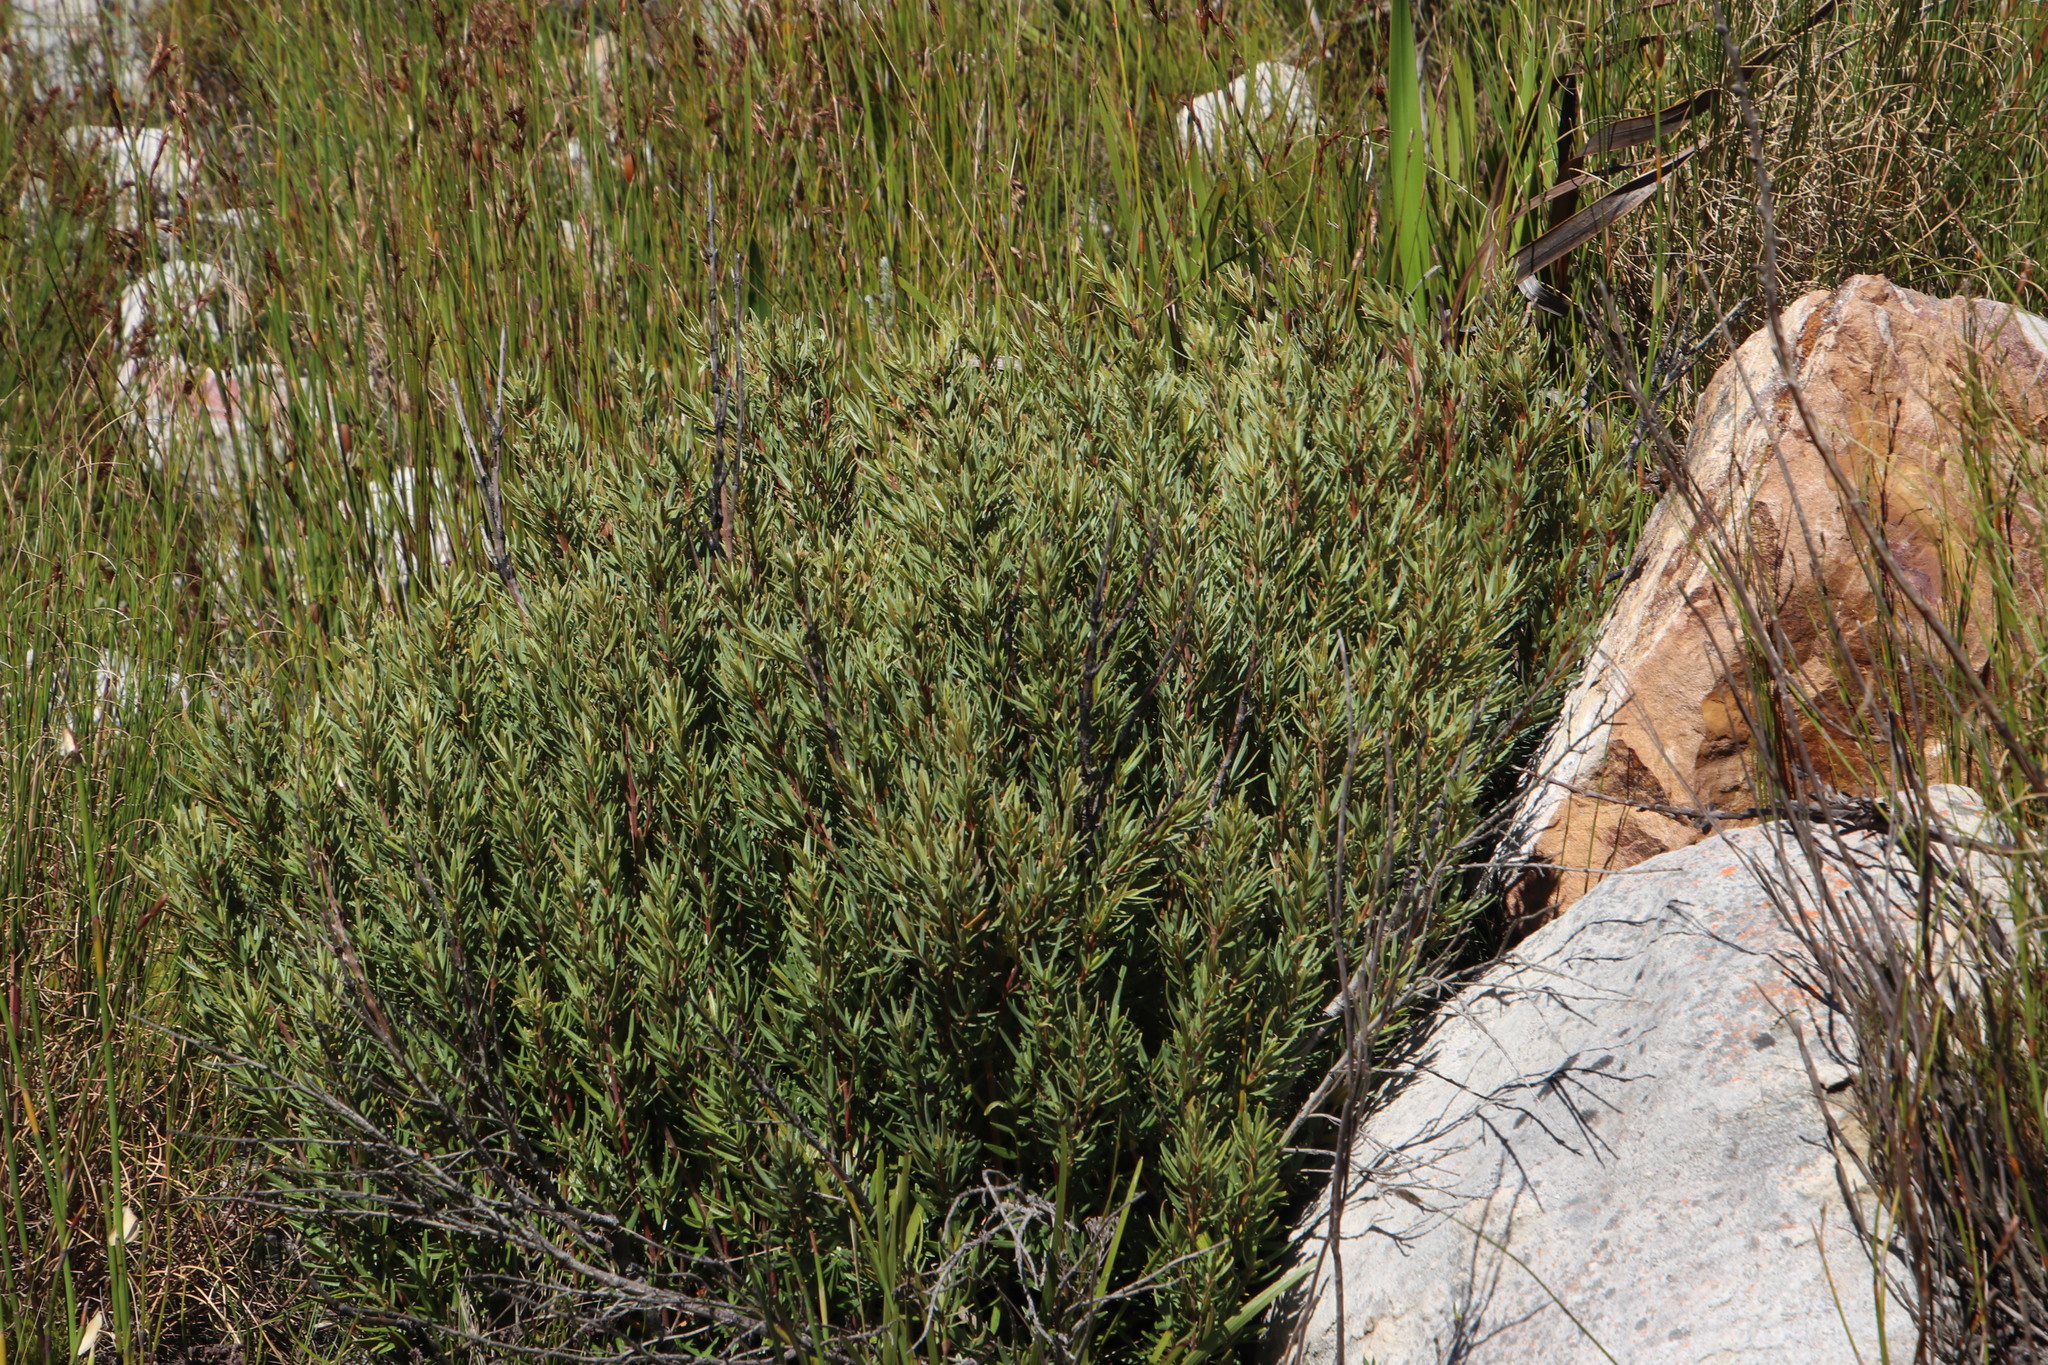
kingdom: Plantae
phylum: Tracheophyta
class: Magnoliopsida
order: Cornales
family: Grubbiaceae
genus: Grubbia
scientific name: Grubbia tomentosa
